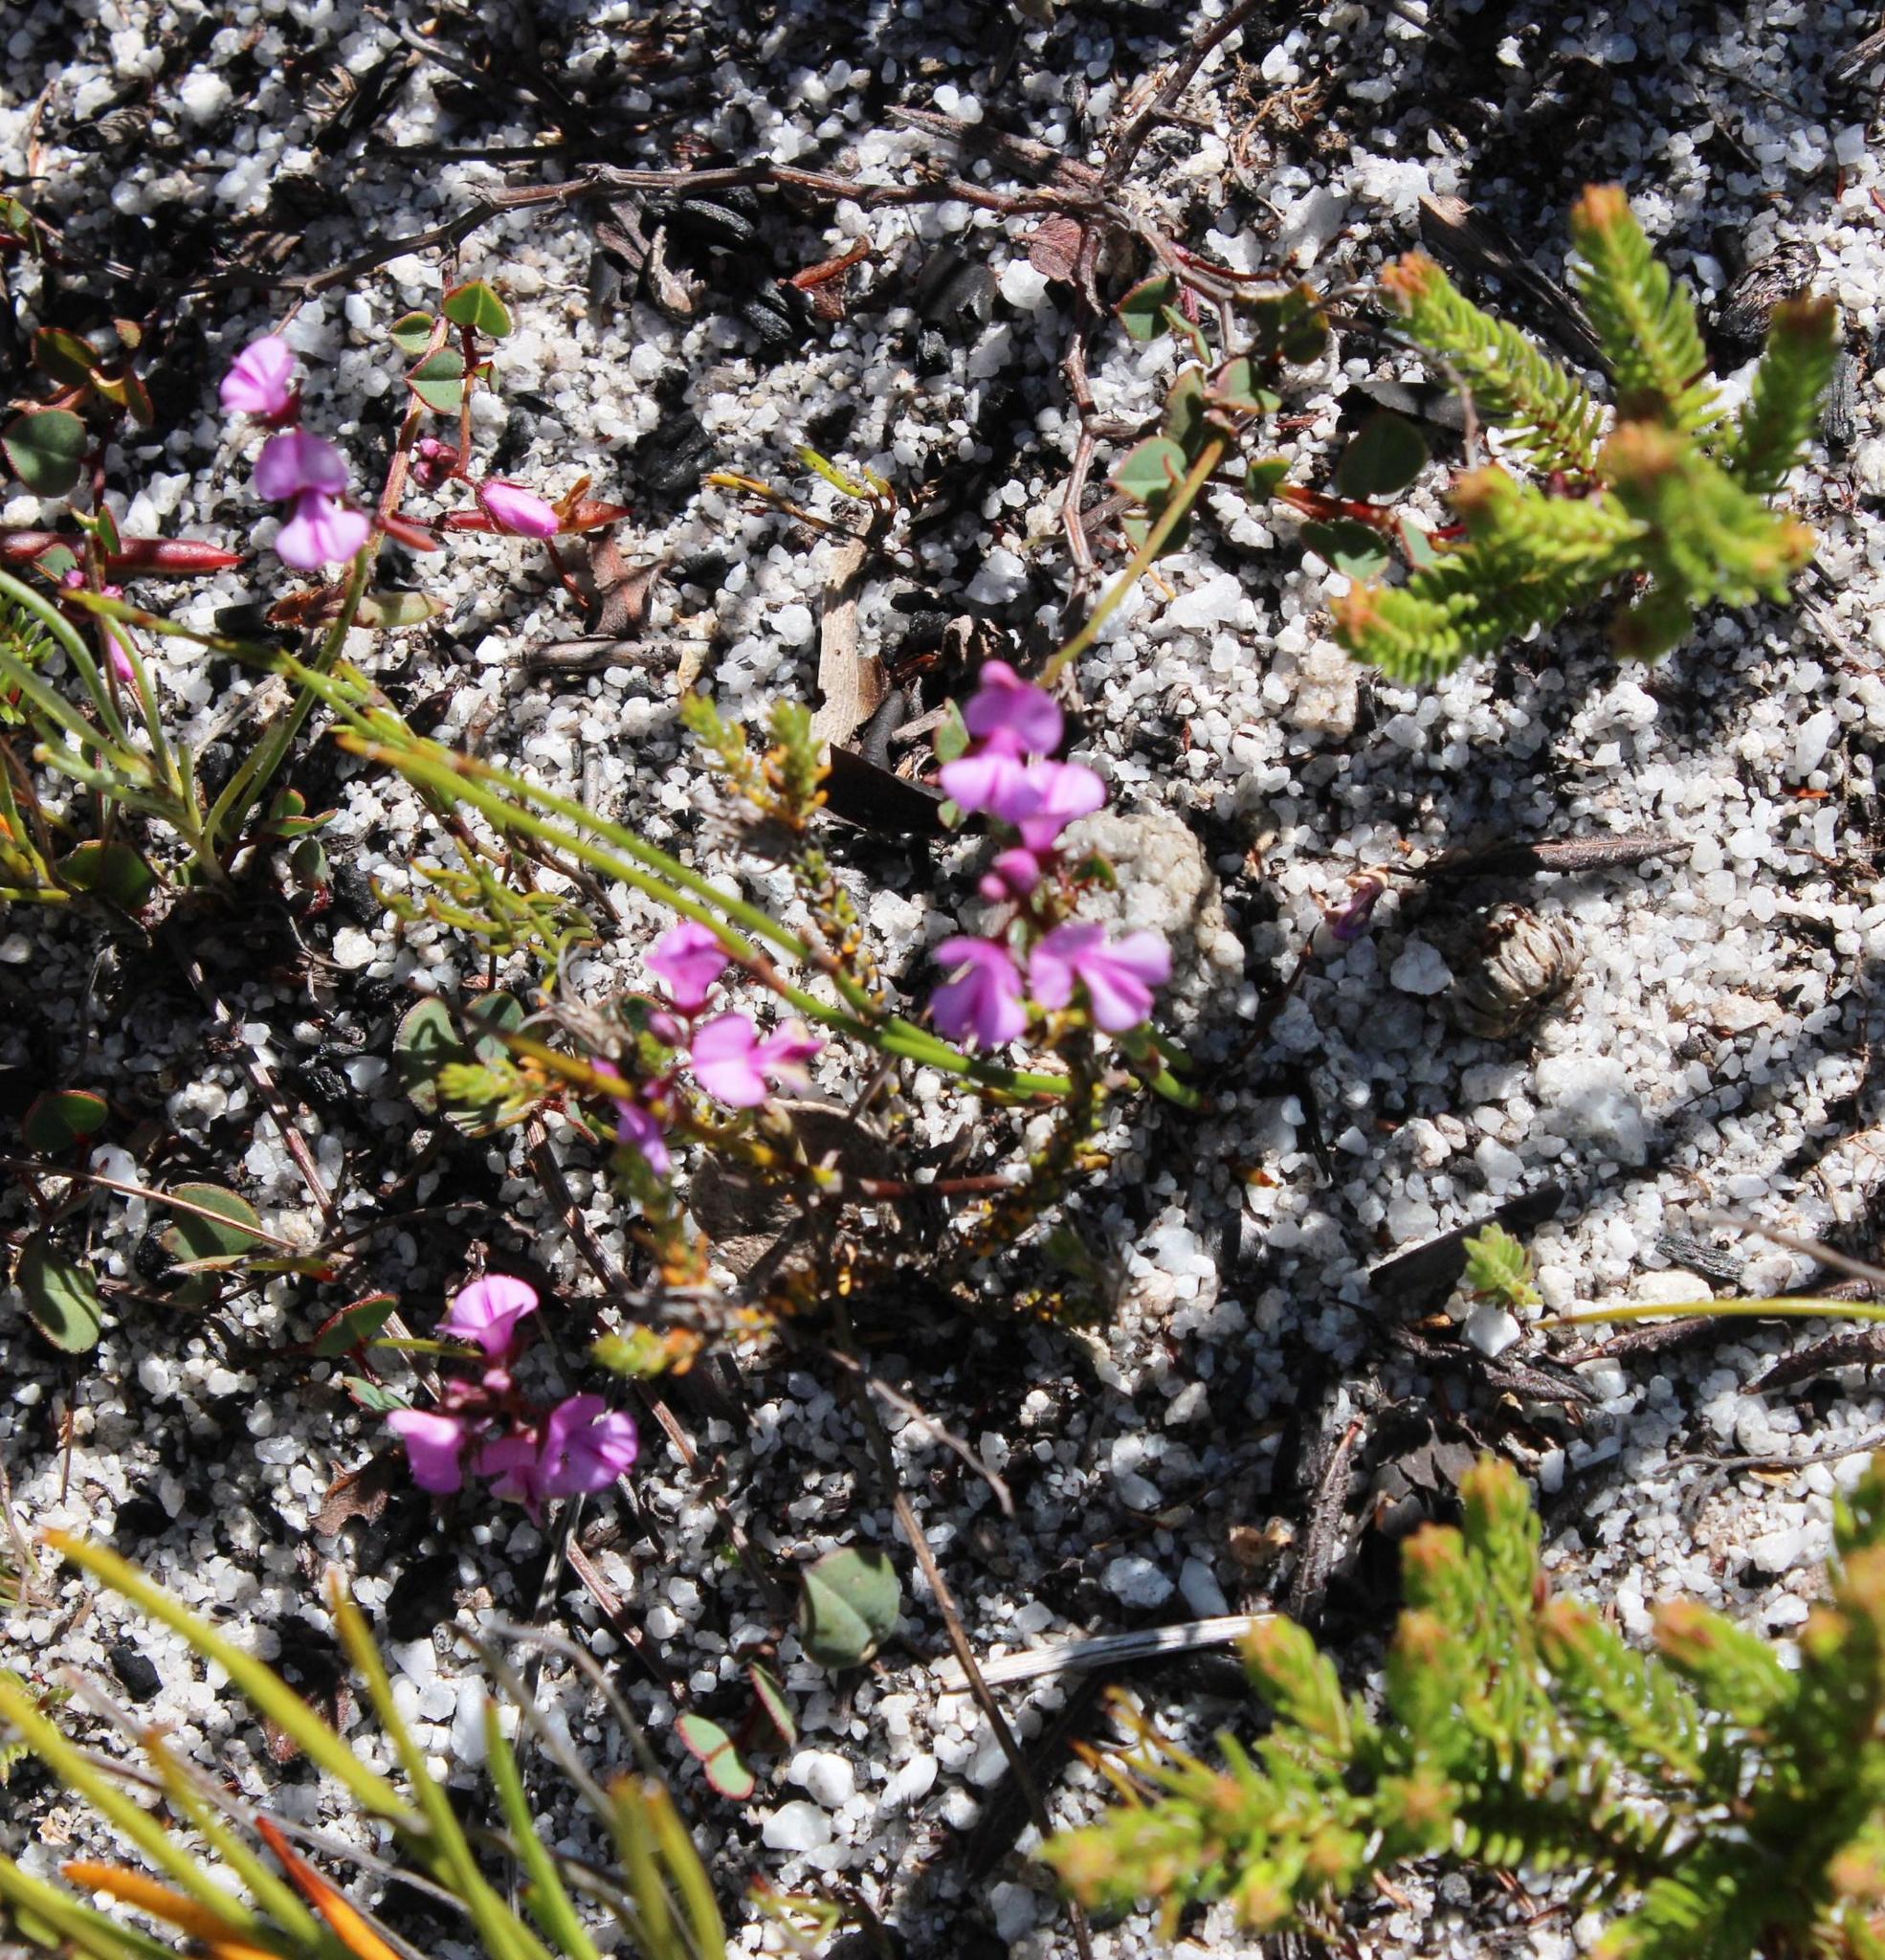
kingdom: Plantae
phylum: Tracheophyta
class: Magnoliopsida
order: Fabales
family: Fabaceae
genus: Indigofera
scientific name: Indigofera ovata
